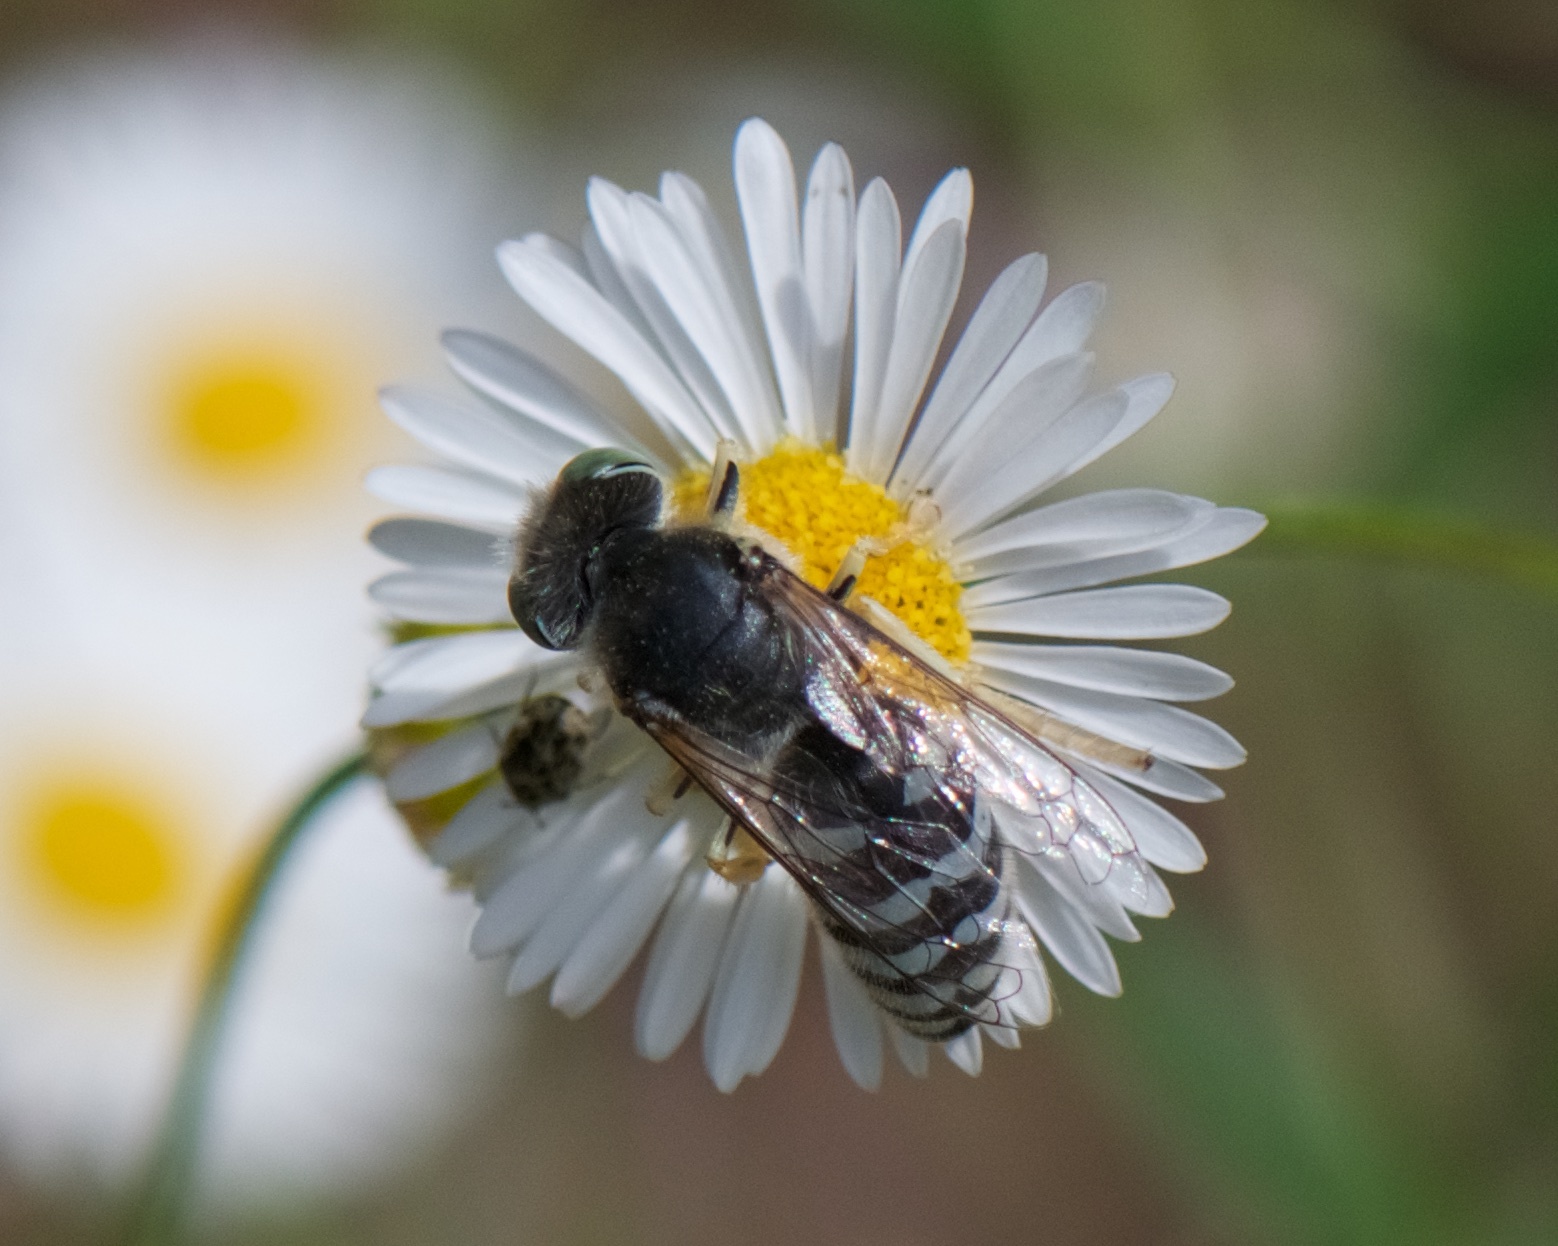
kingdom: Animalia
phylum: Arthropoda
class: Insecta
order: Hymenoptera
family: Crabronidae
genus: Bembix
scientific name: Bembix americana
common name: American sand wasp
